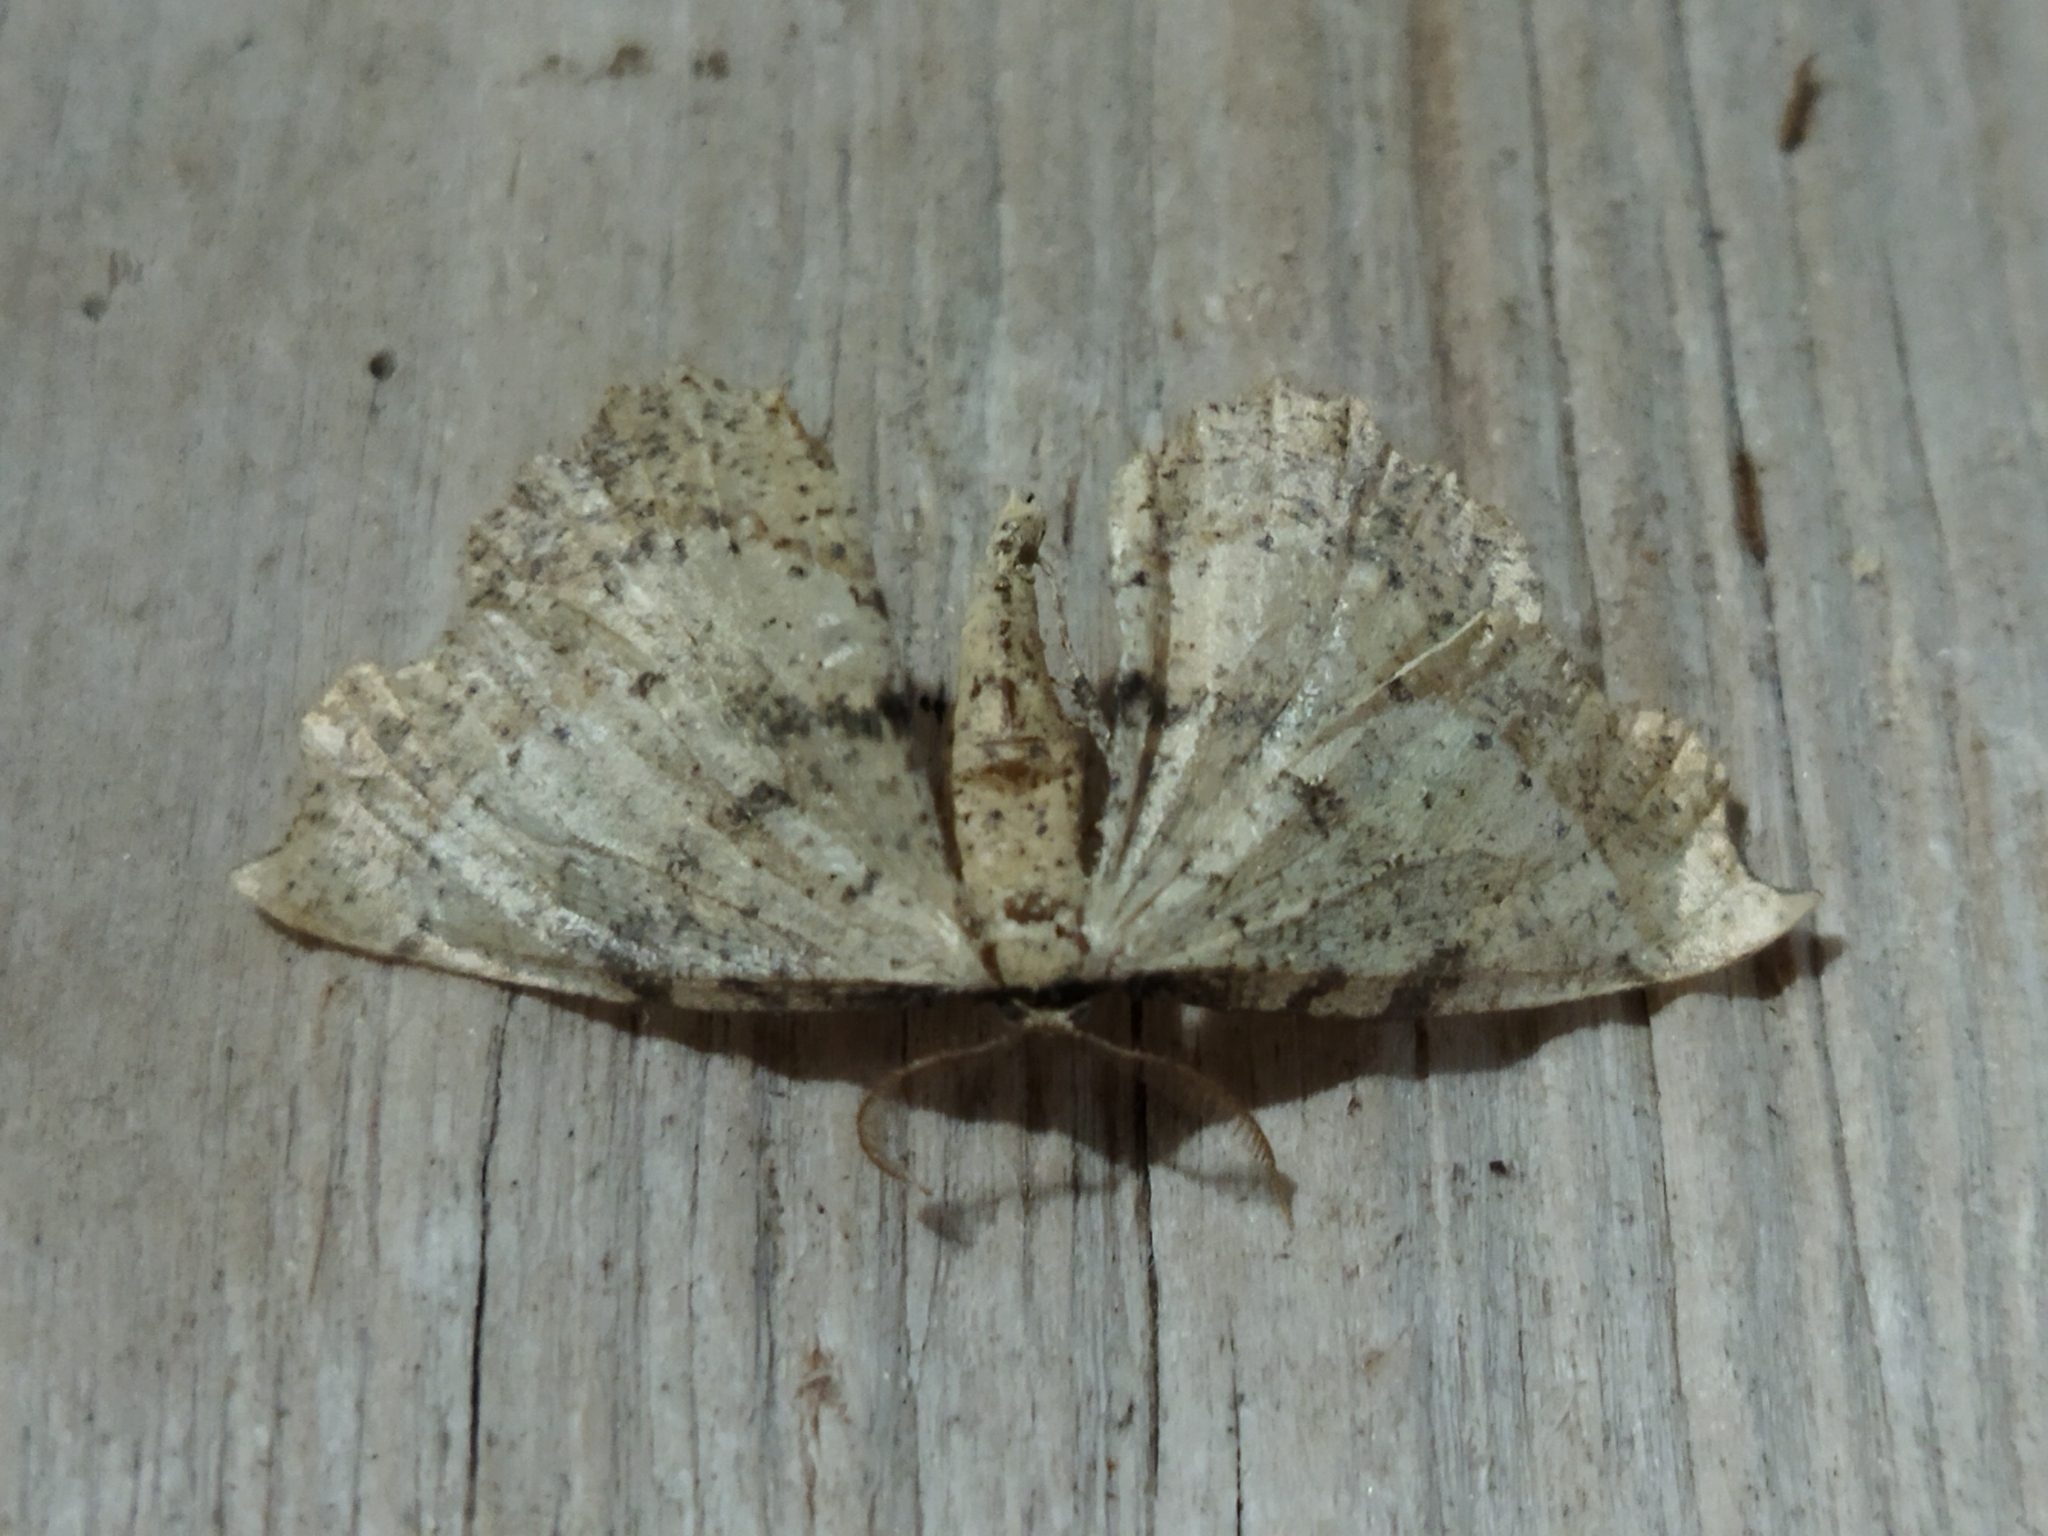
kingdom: Animalia
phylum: Arthropoda
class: Insecta
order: Lepidoptera
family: Geometridae
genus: Artiora
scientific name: Artiora evonymaria
